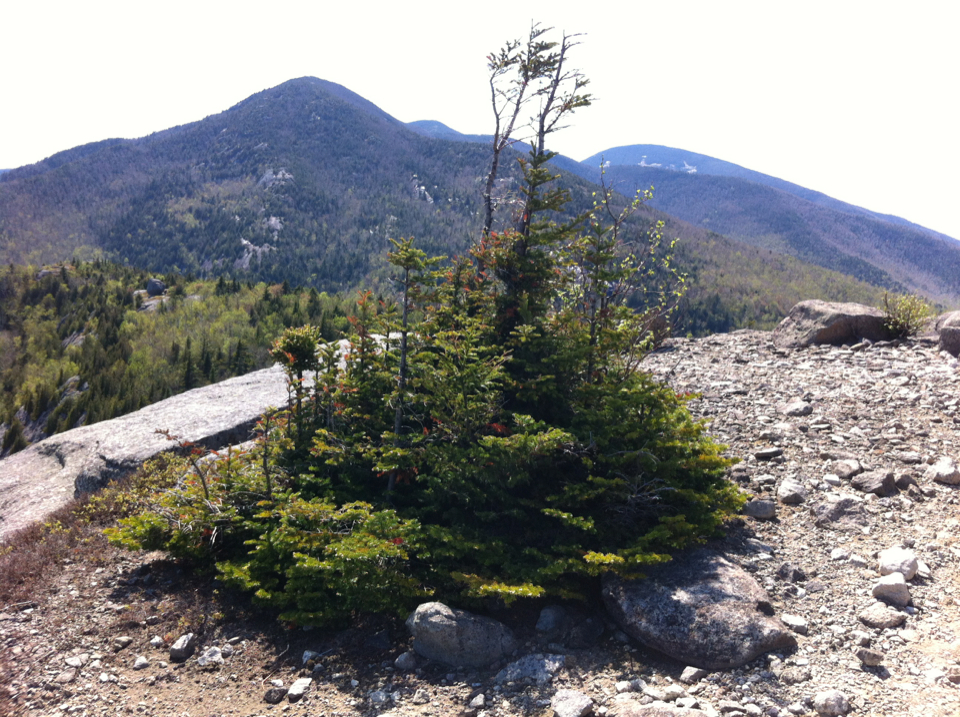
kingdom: Plantae
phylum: Tracheophyta
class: Pinopsida
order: Pinales
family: Pinaceae
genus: Abies
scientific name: Abies balsamea
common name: Balsam fir
